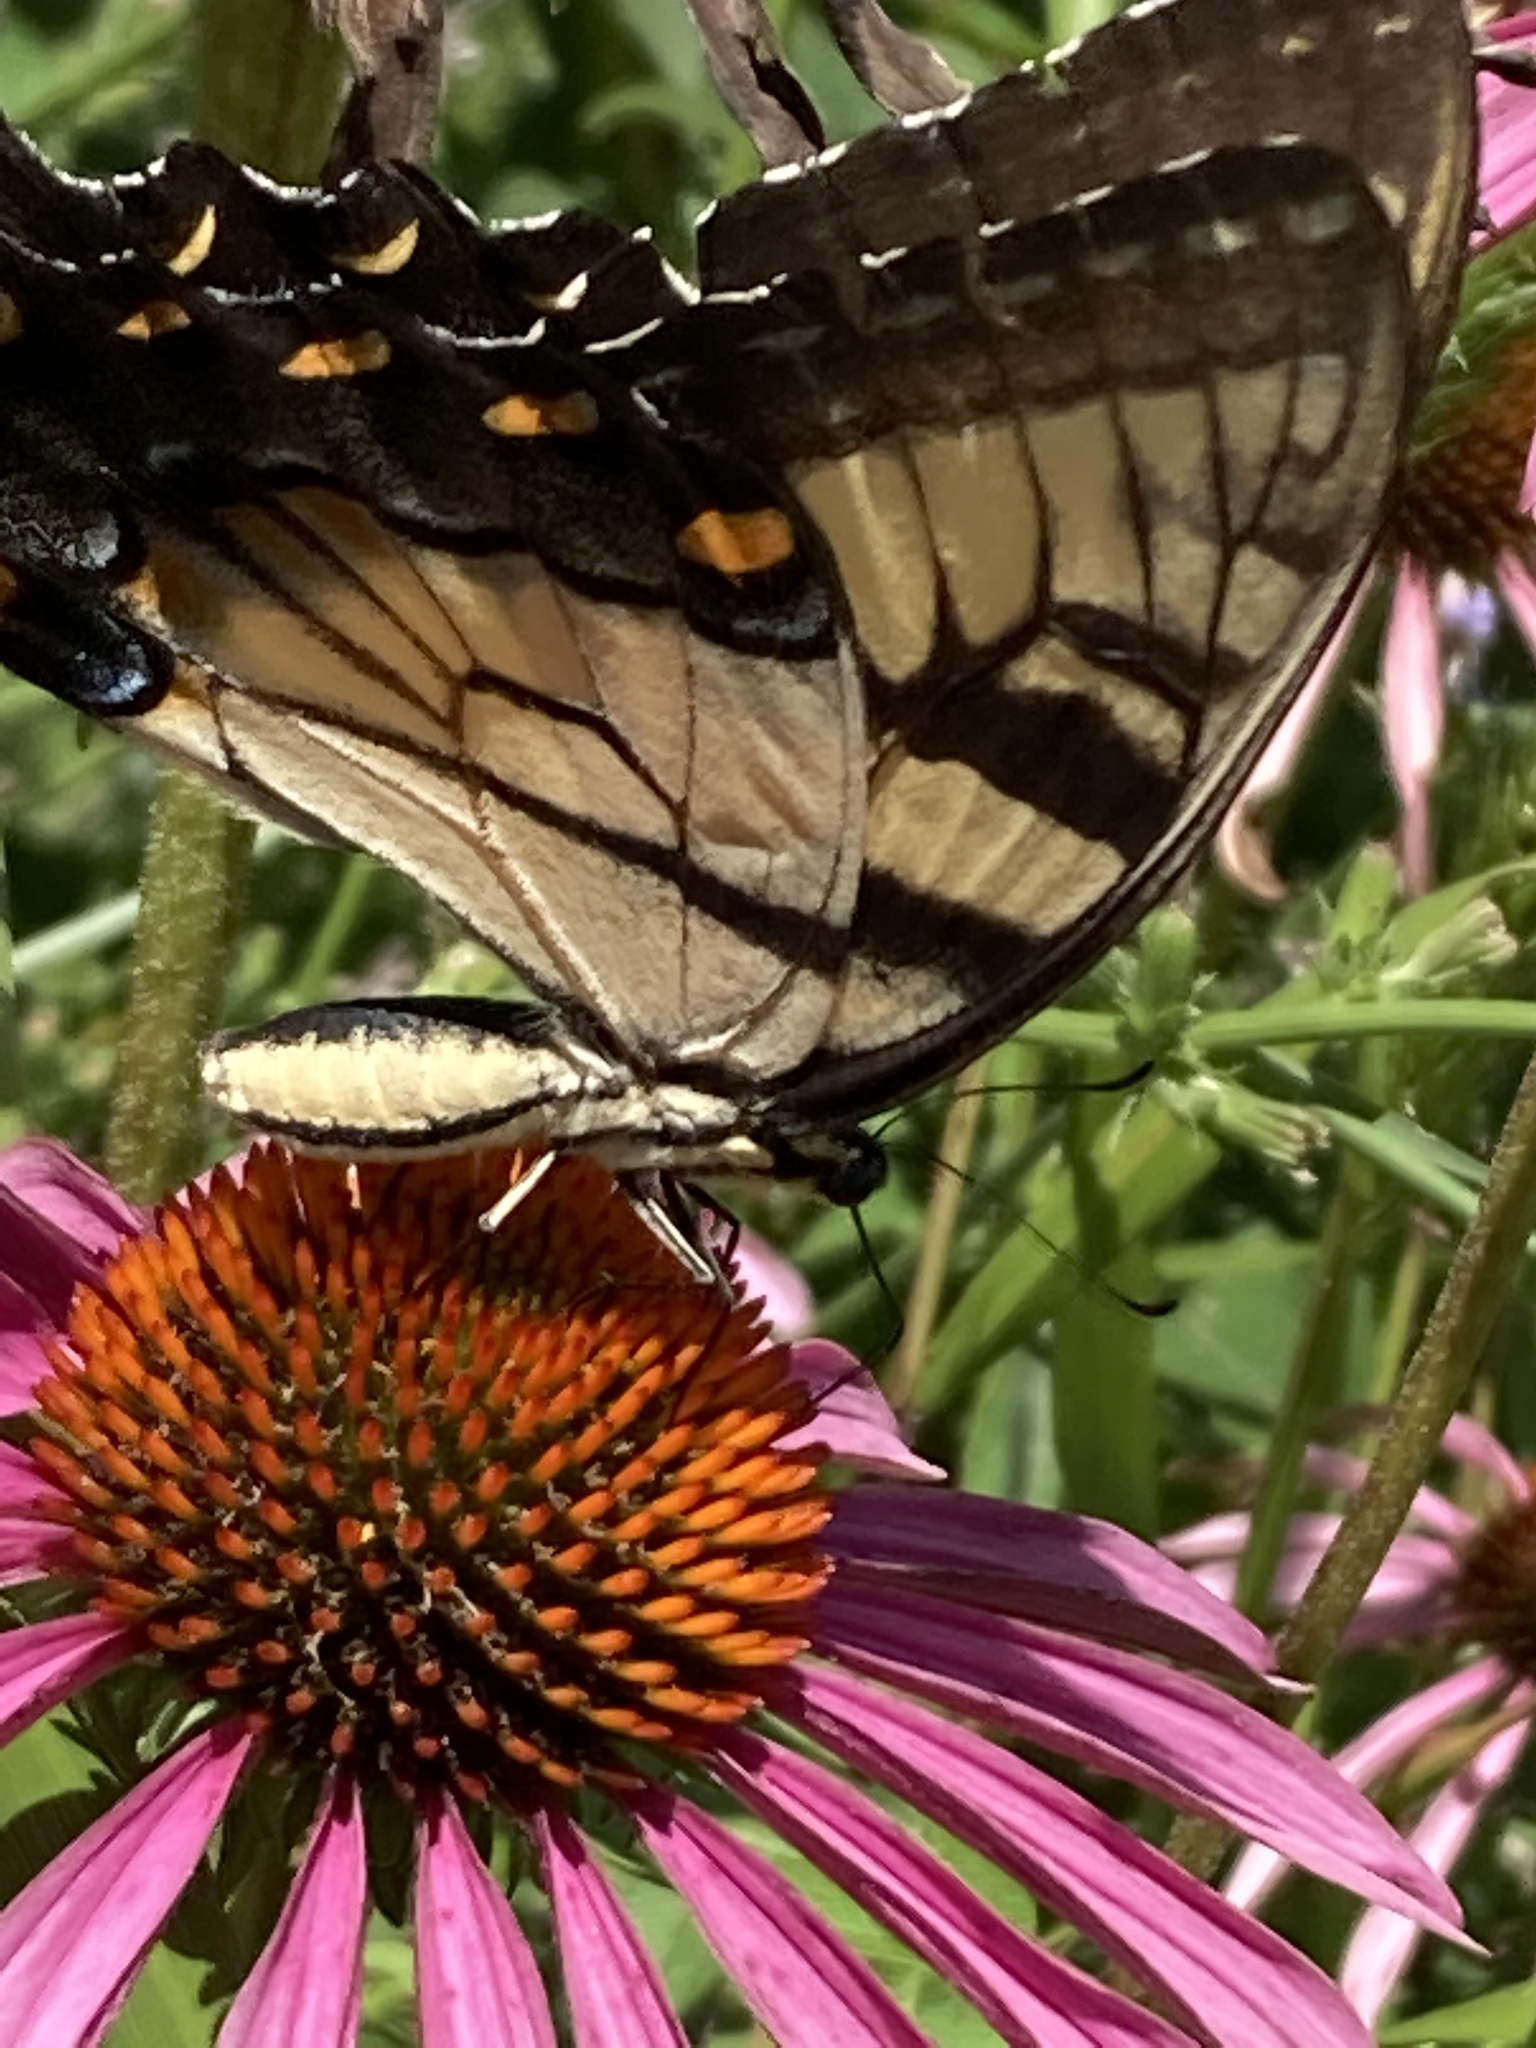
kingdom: Animalia
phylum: Arthropoda
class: Insecta
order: Lepidoptera
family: Papilionidae
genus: Papilio
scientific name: Papilio glaucus
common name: Tiger swallowtail
